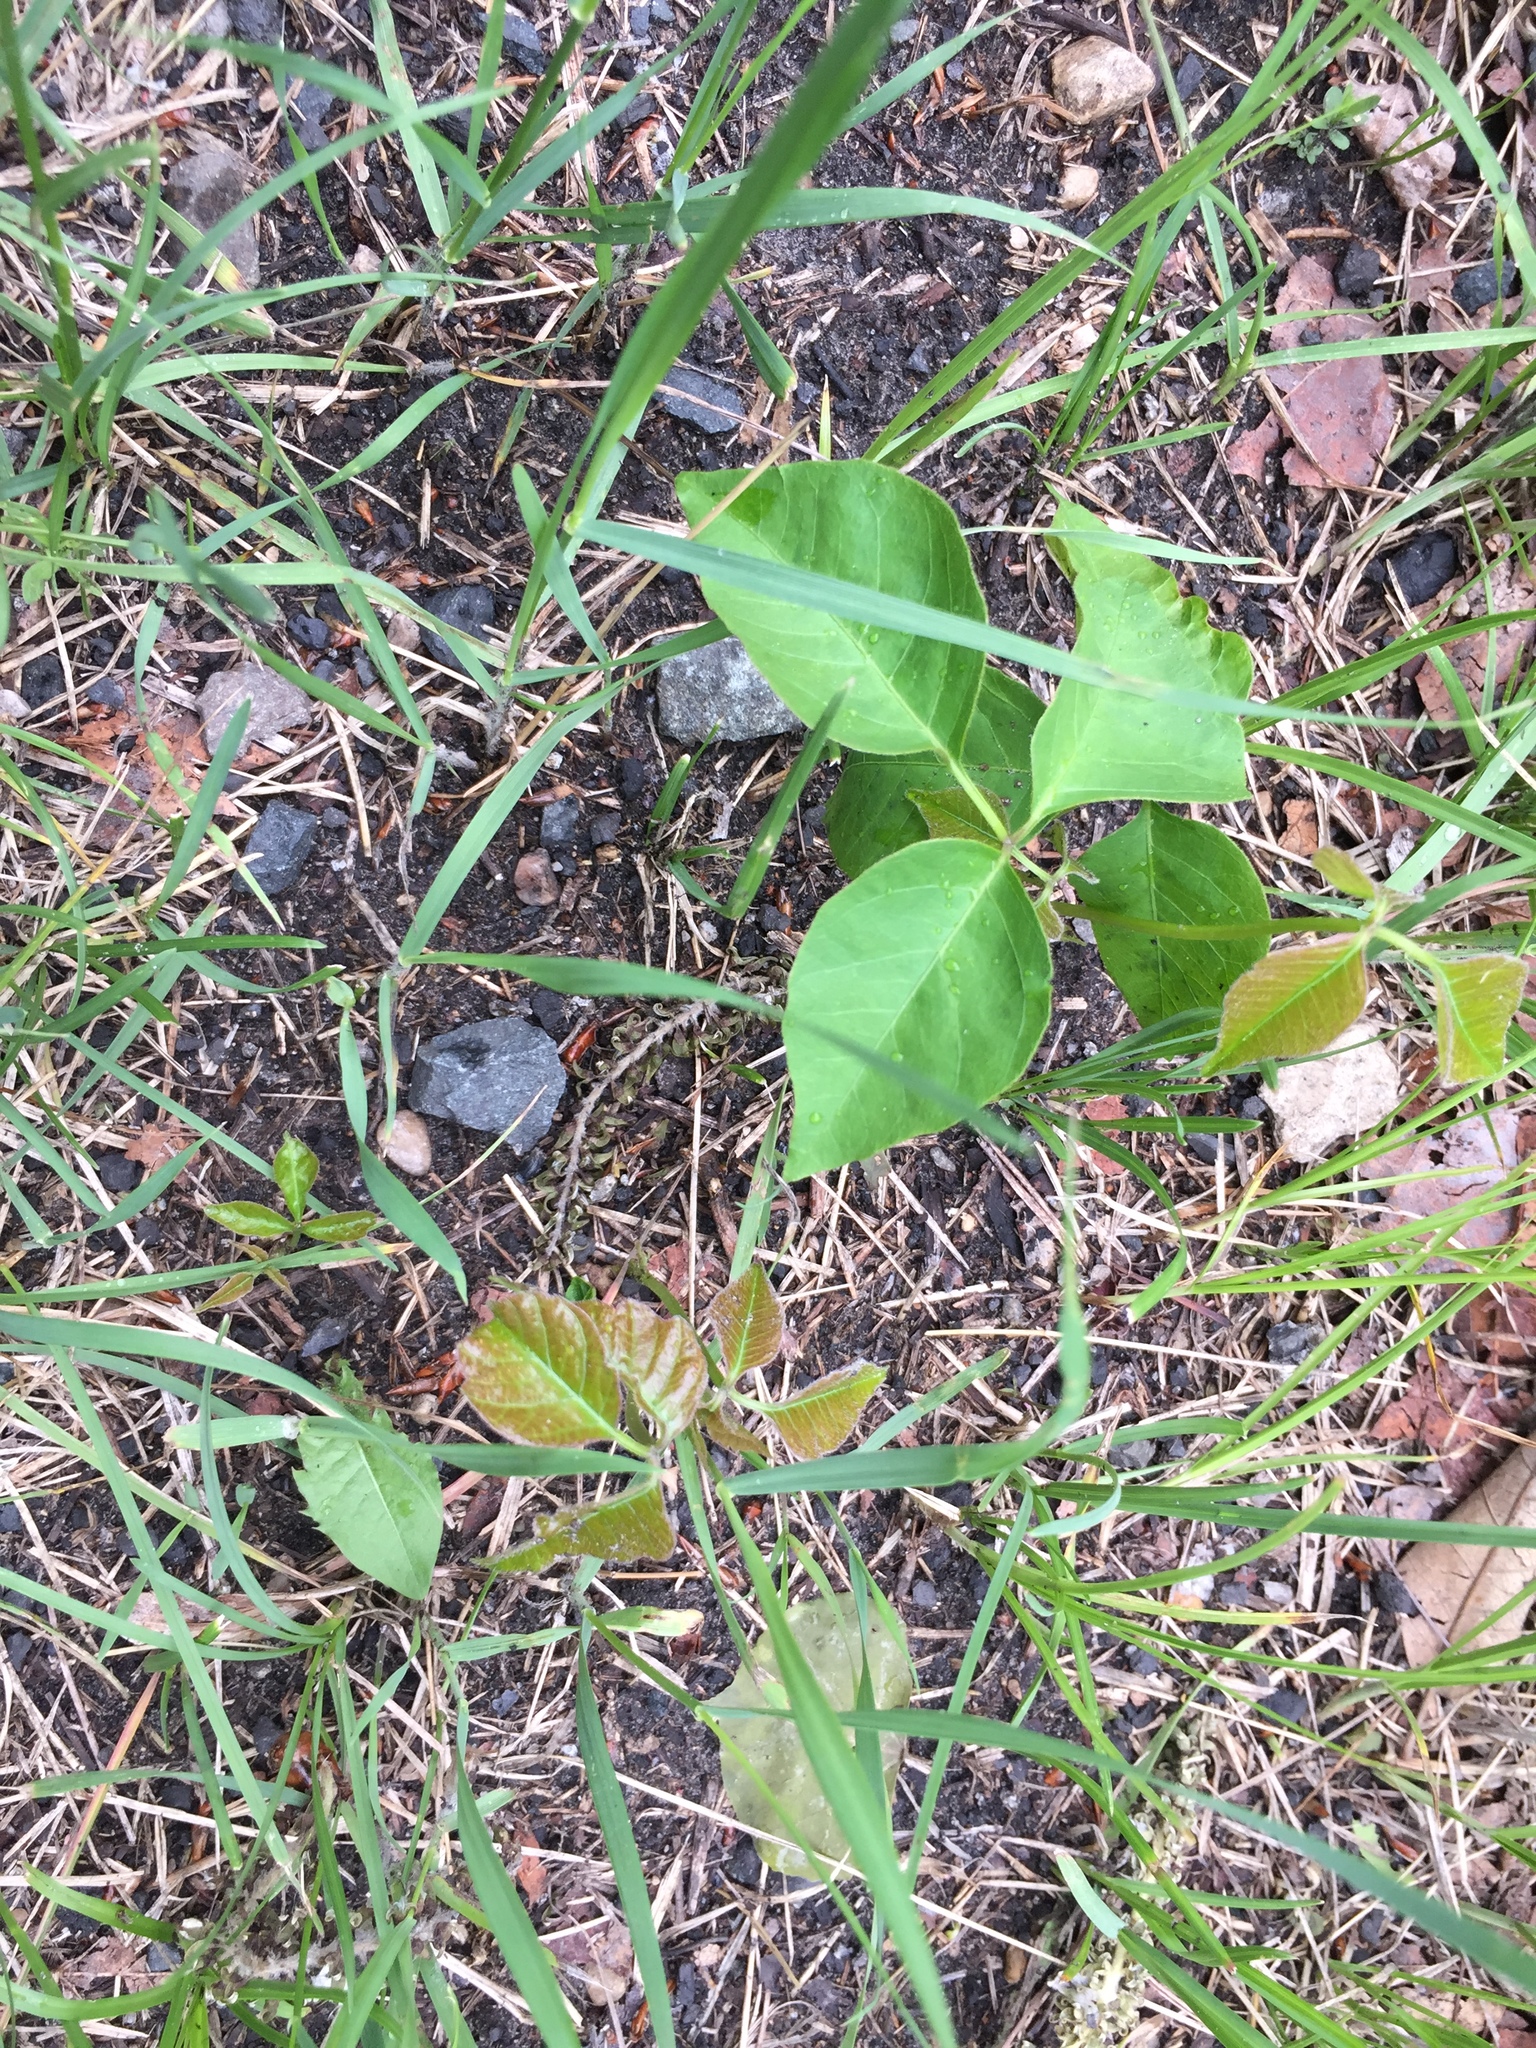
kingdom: Plantae
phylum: Tracheophyta
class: Magnoliopsida
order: Sapindales
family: Anacardiaceae
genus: Toxicodendron
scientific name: Toxicodendron rydbergii
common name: Rydberg's poison-ivy
